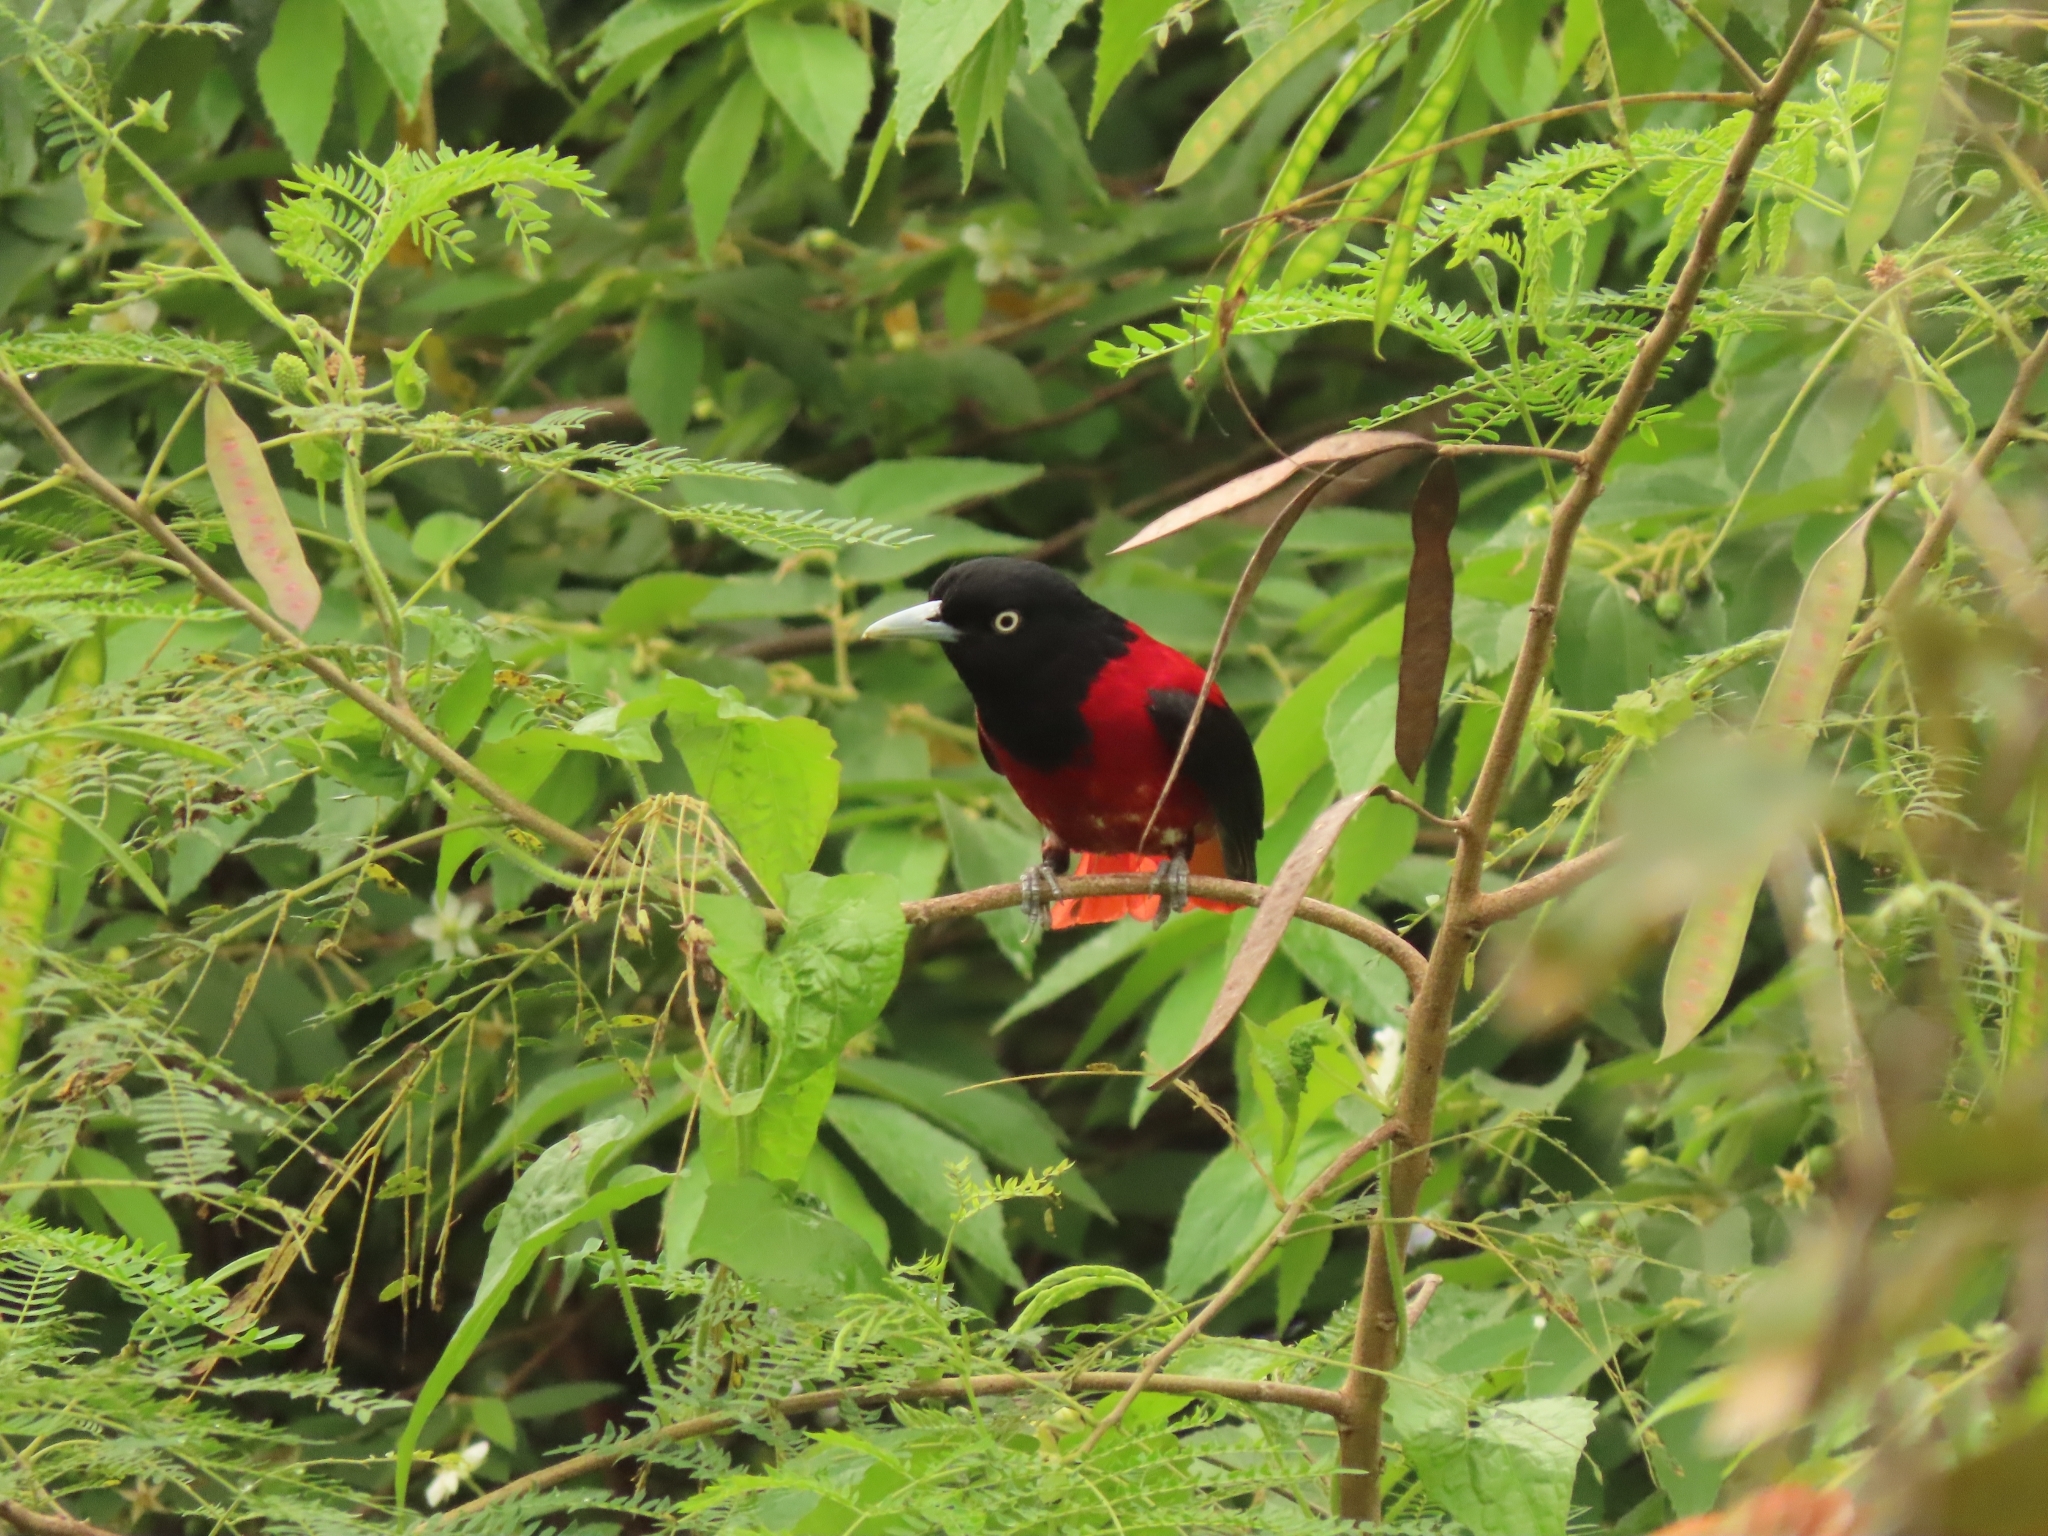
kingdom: Animalia
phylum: Chordata
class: Aves
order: Passeriformes
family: Oriolidae
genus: Oriolus
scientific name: Oriolus traillii
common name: Maroon oriole
